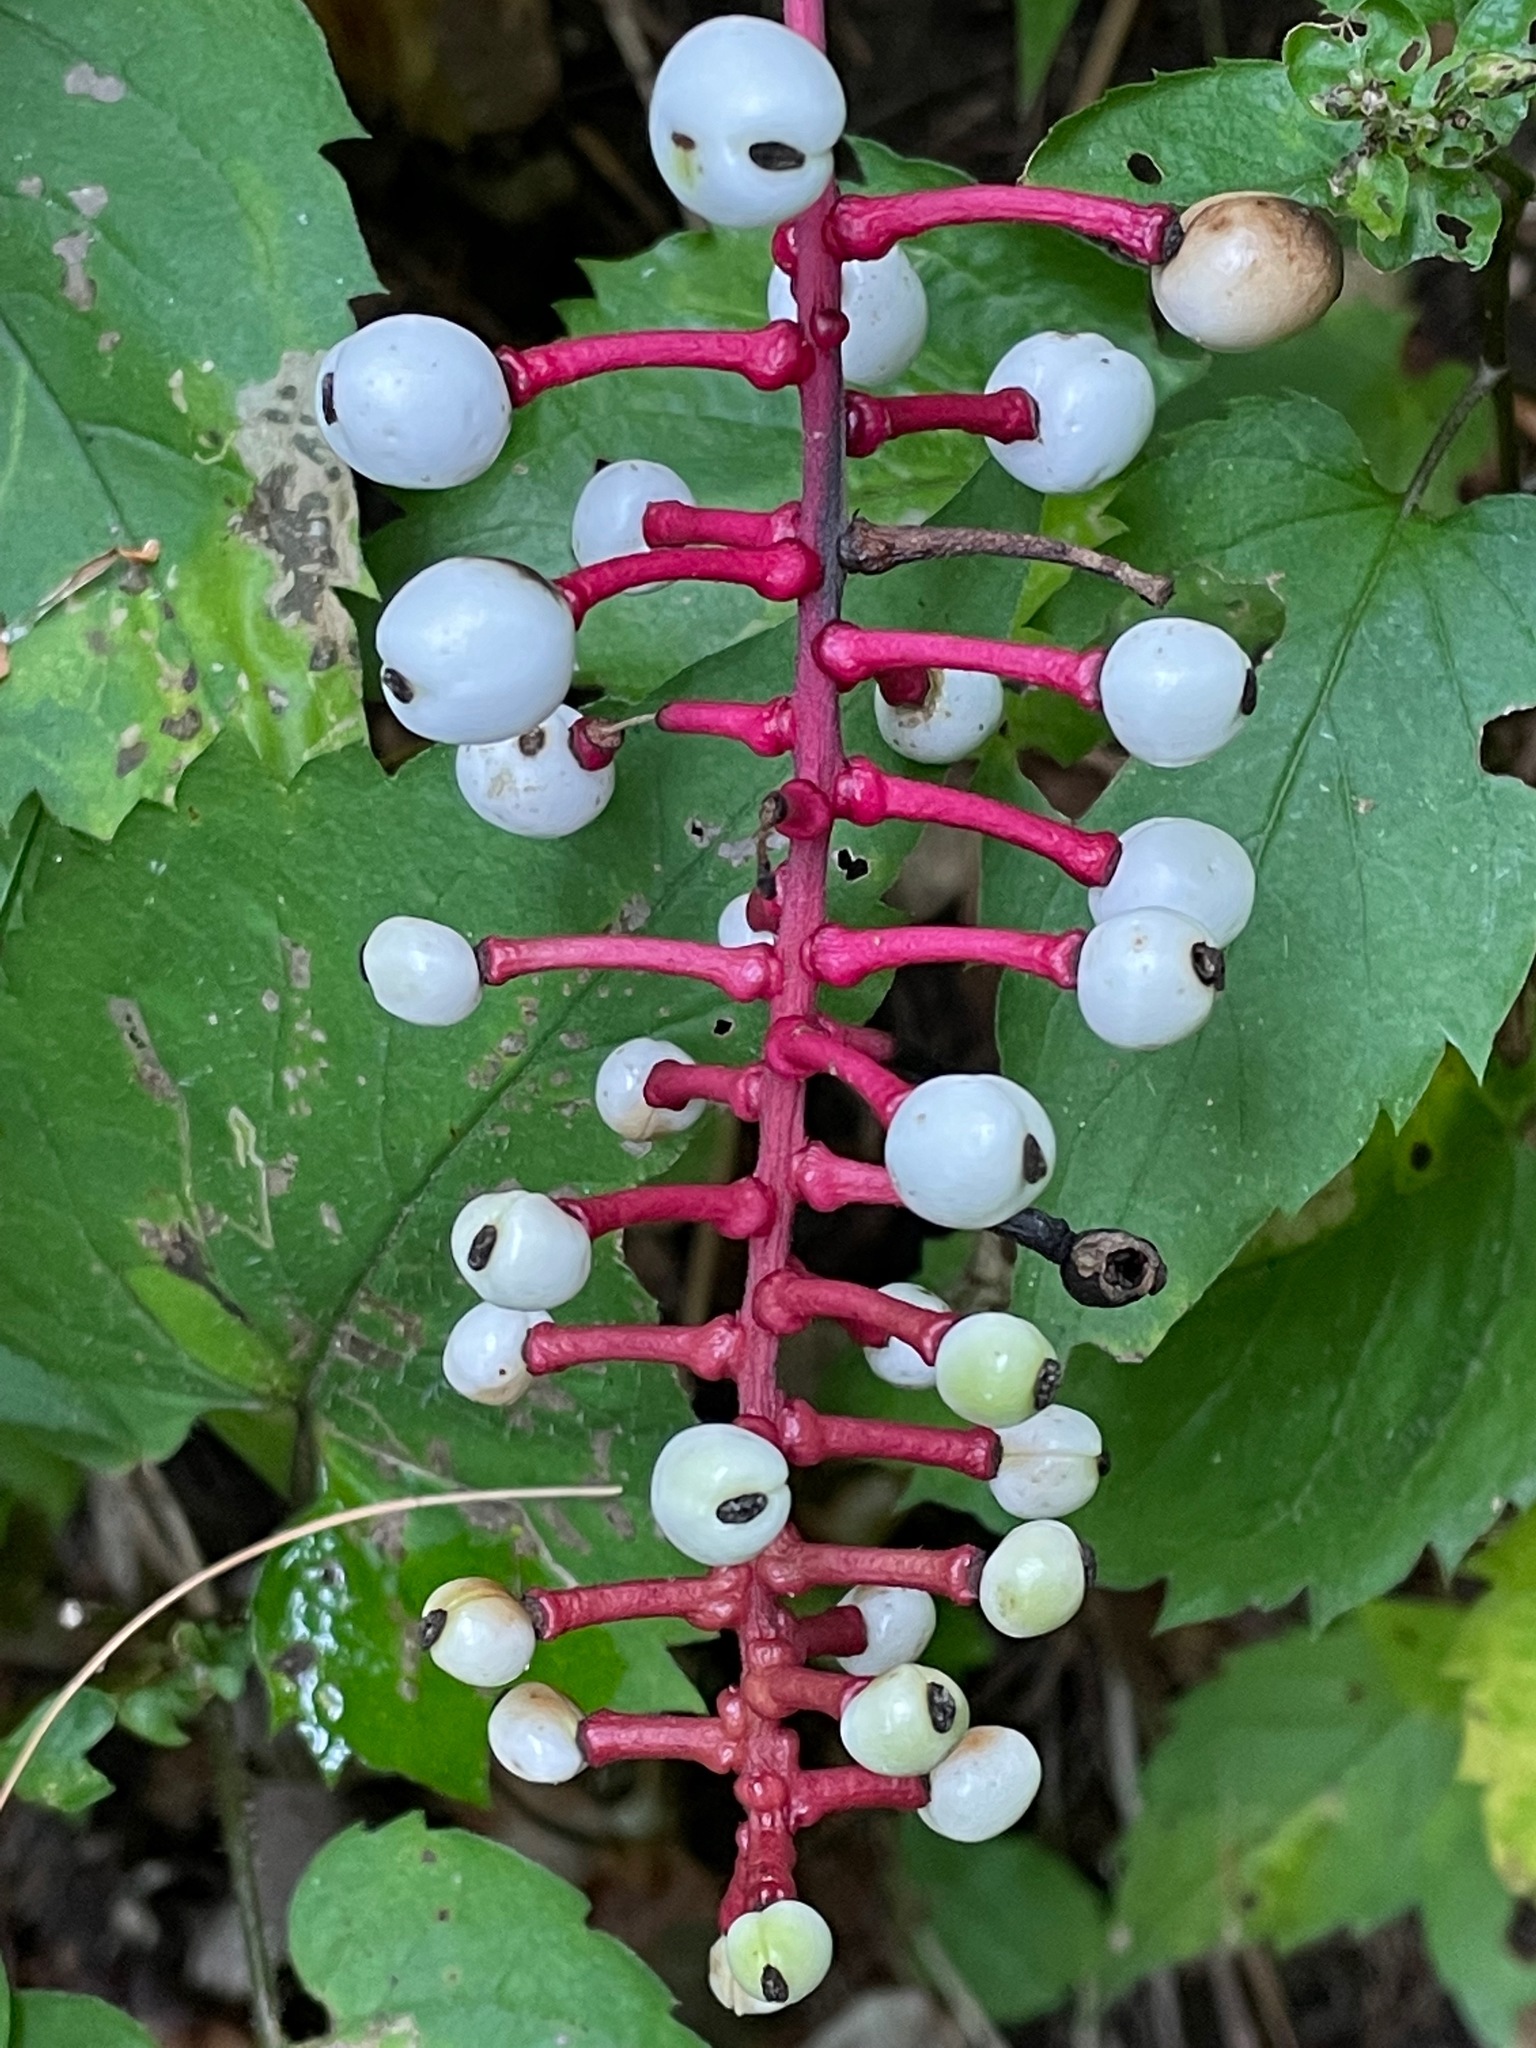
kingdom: Plantae
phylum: Tracheophyta
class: Magnoliopsida
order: Ranunculales
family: Ranunculaceae
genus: Actaea
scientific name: Actaea pachypoda
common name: Doll's-eyes
